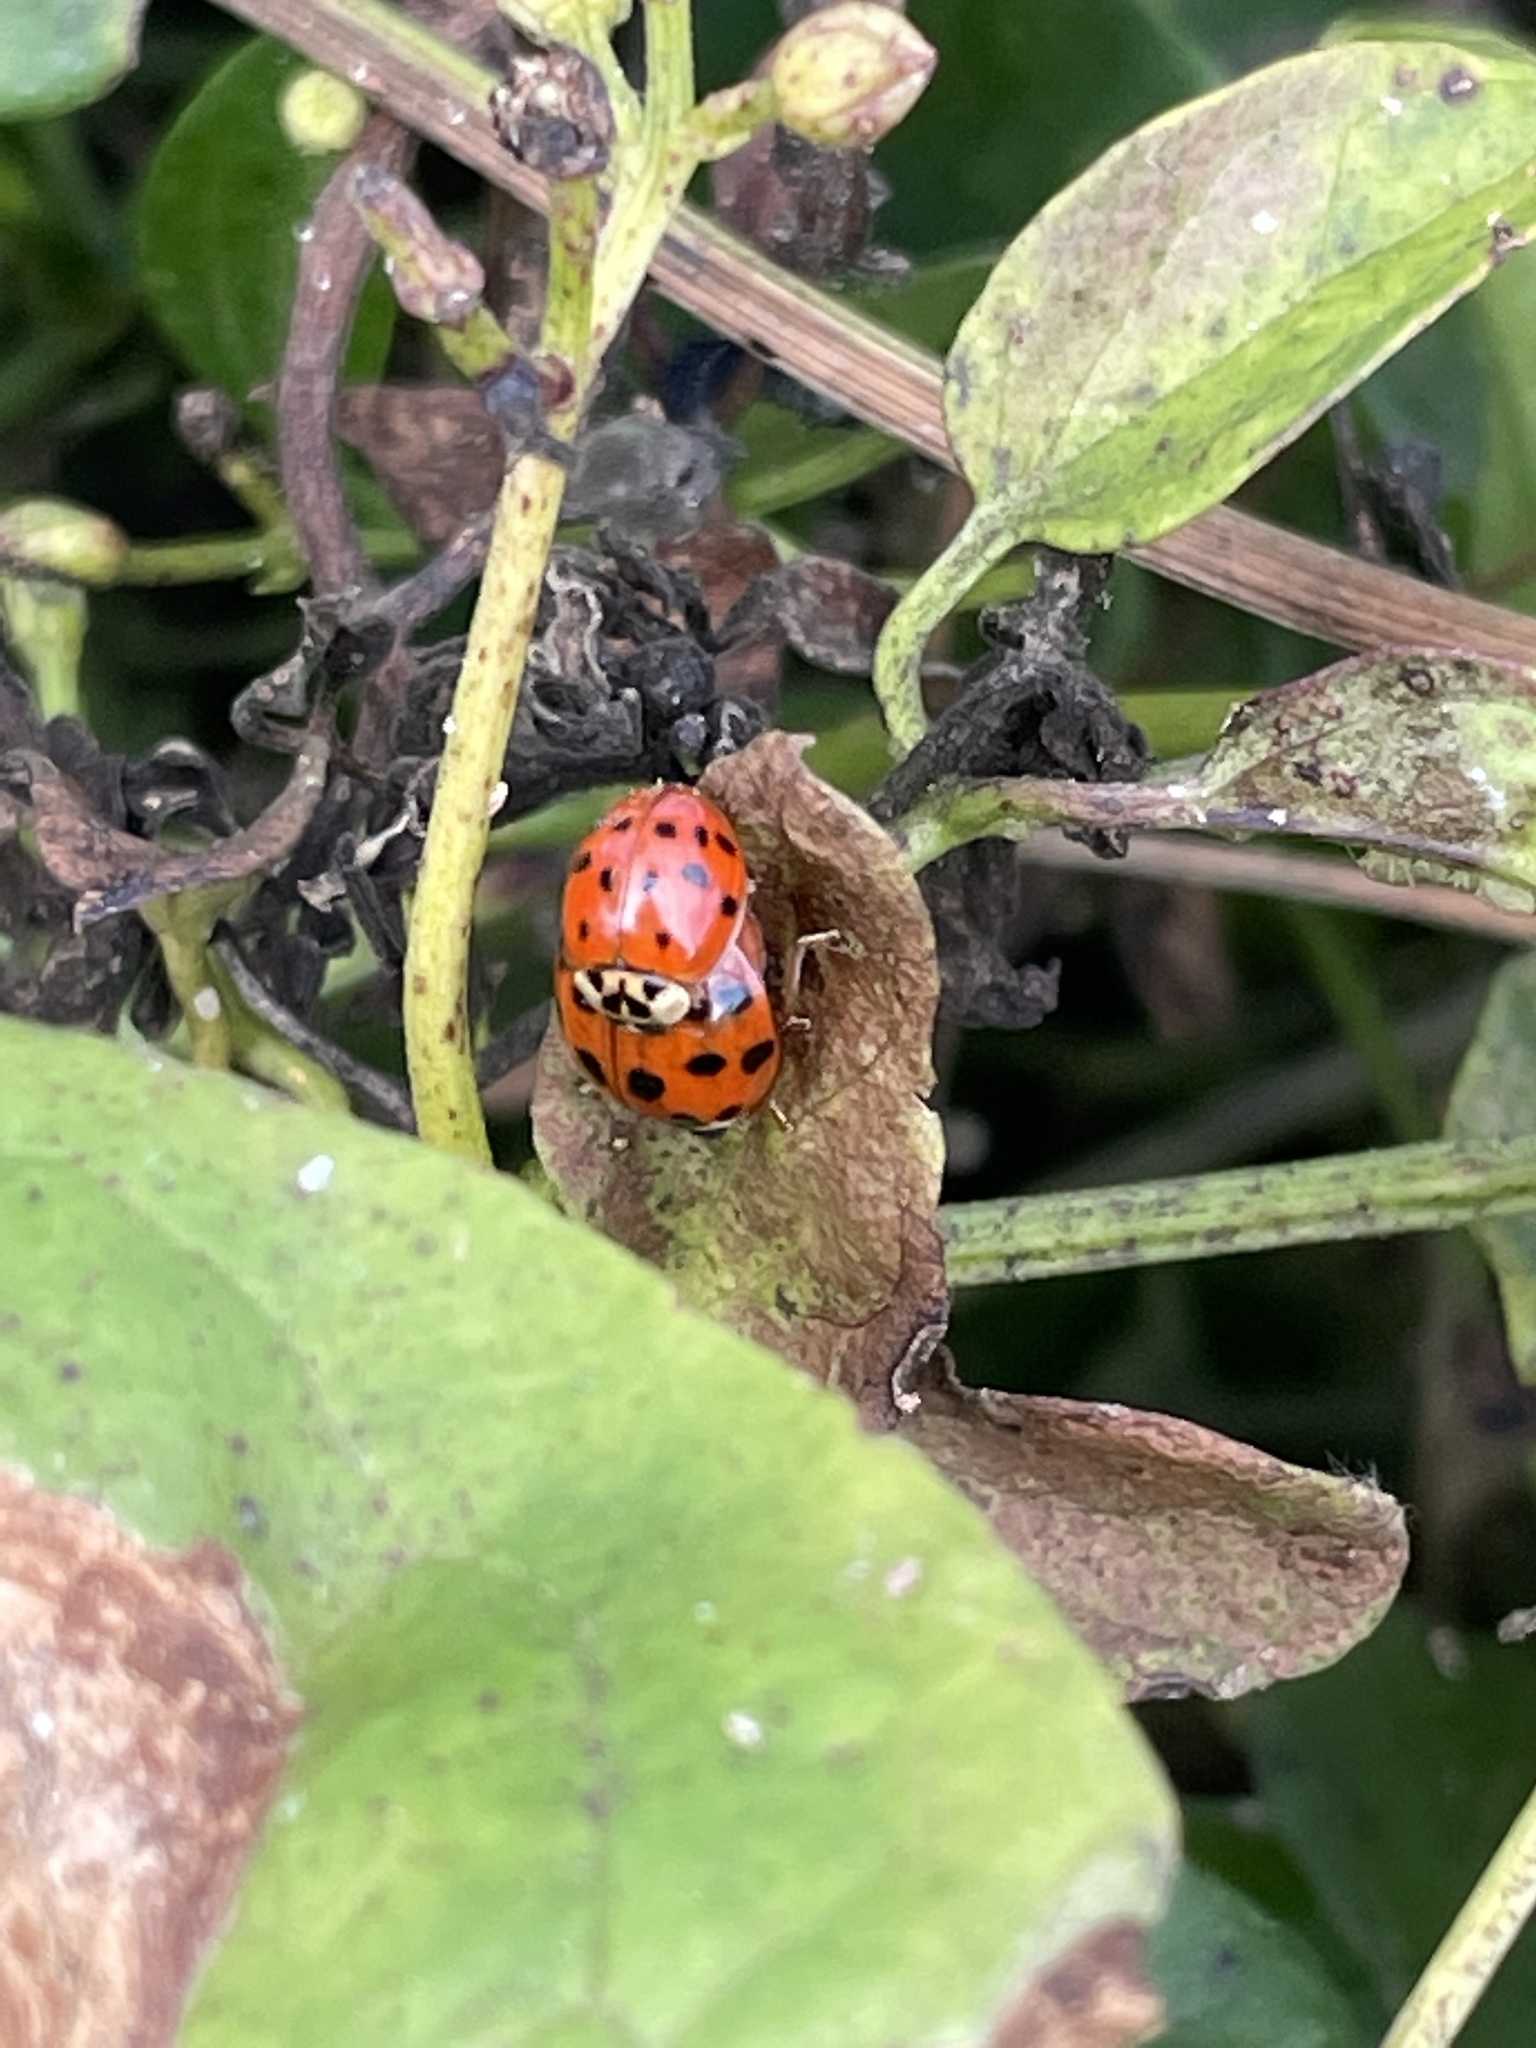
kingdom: Animalia
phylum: Arthropoda
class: Insecta
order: Coleoptera
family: Coccinellidae
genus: Harmonia
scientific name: Harmonia axyridis
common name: Harlequin ladybird
